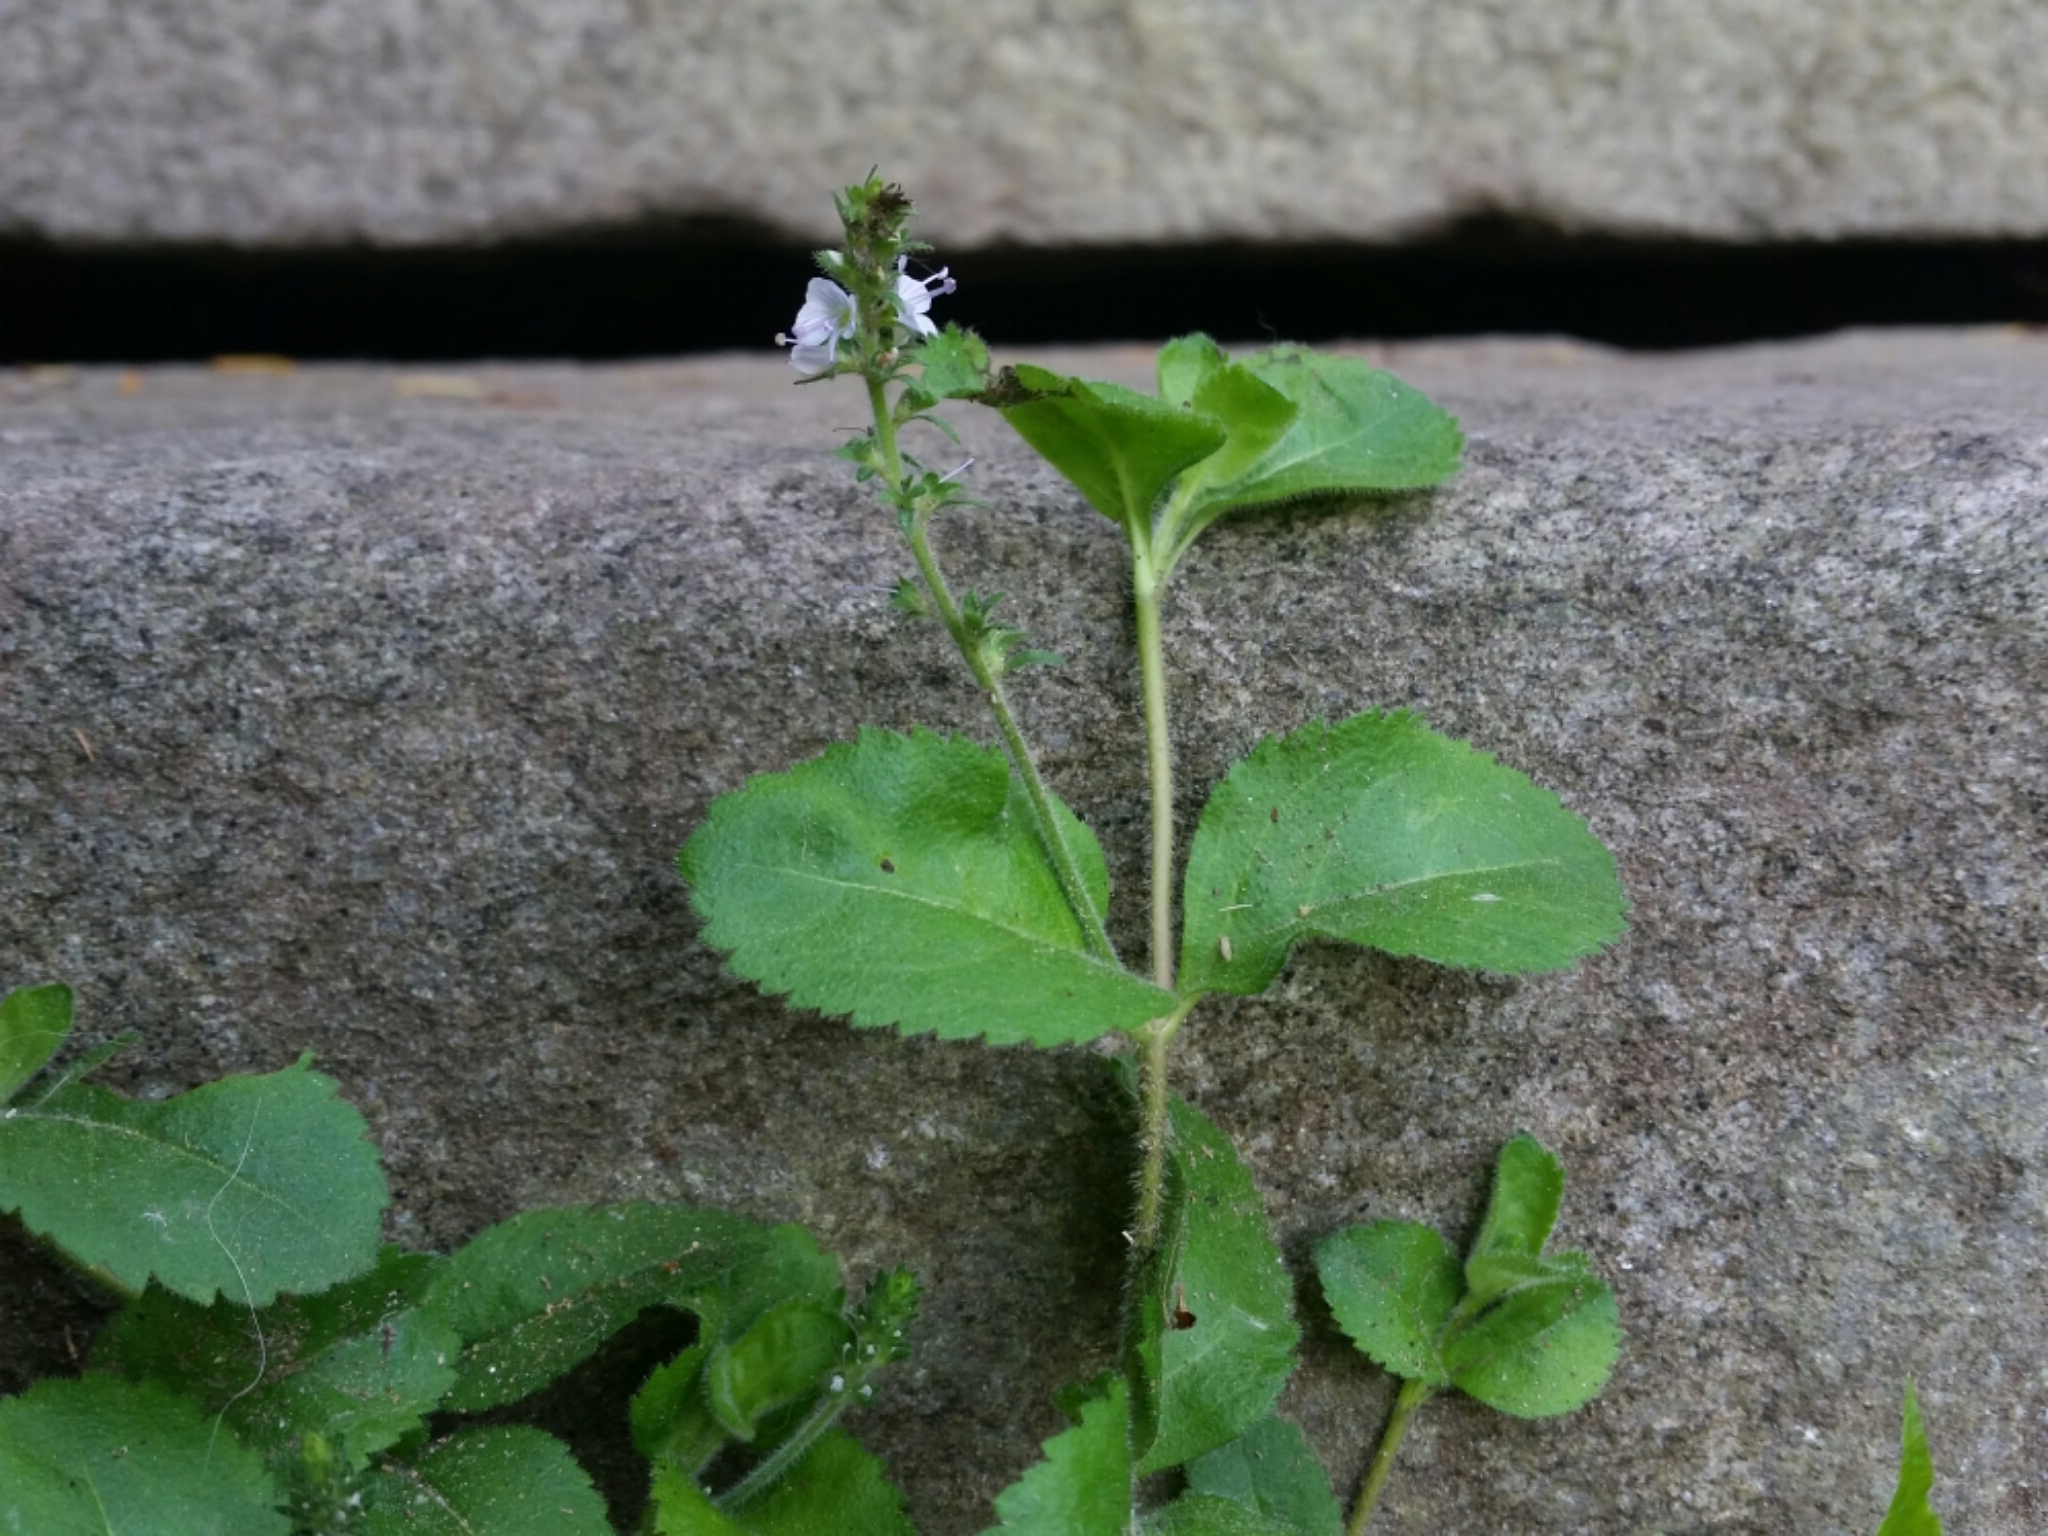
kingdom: Plantae
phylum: Tracheophyta
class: Magnoliopsida
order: Lamiales
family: Plantaginaceae
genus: Veronica
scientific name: Veronica officinalis
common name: Common speedwell
